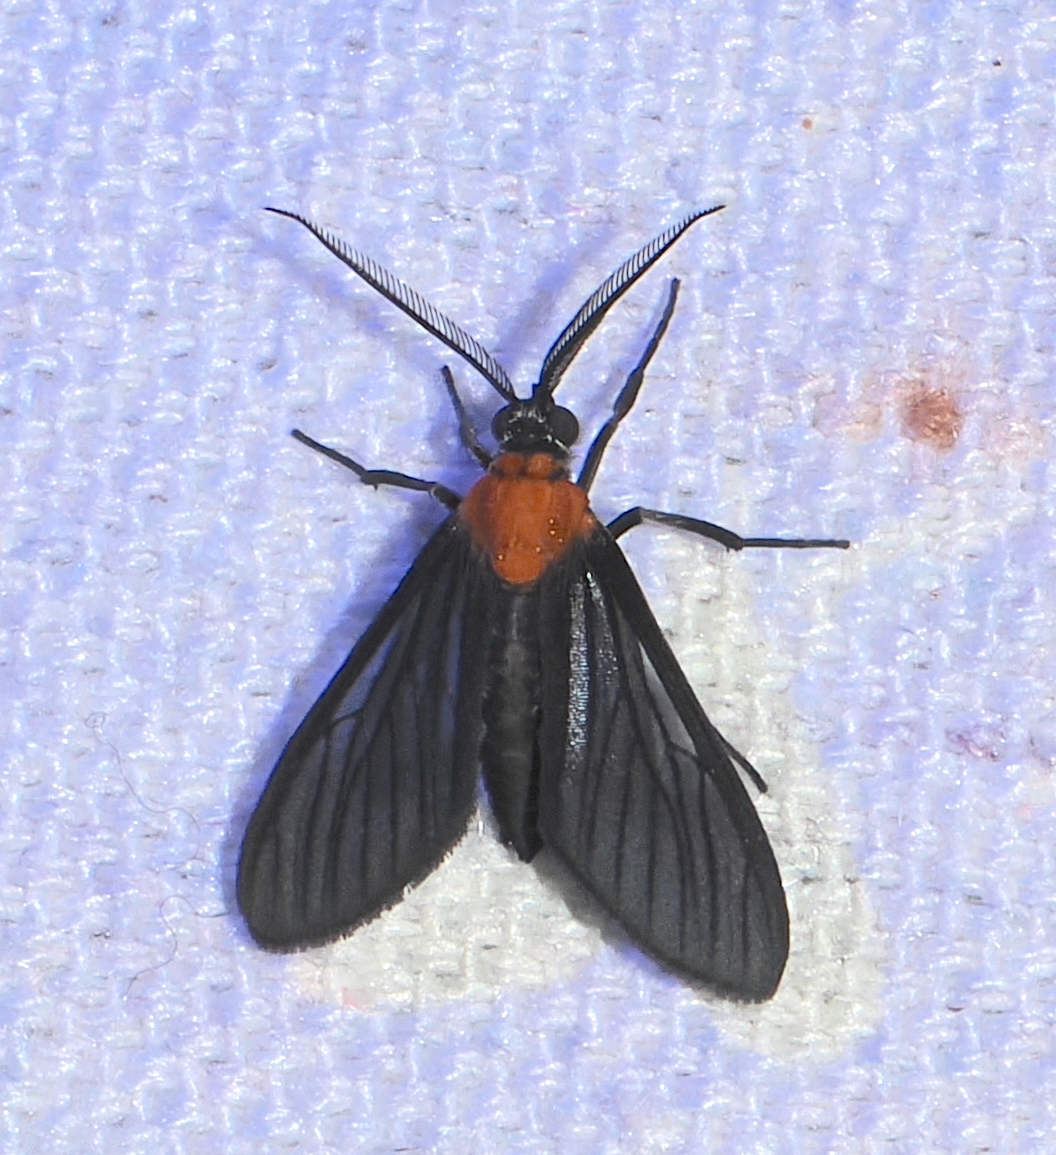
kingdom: Animalia
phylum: Arthropoda
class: Insecta
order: Lepidoptera
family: Erebidae
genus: Saurita
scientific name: Saurita temenus
